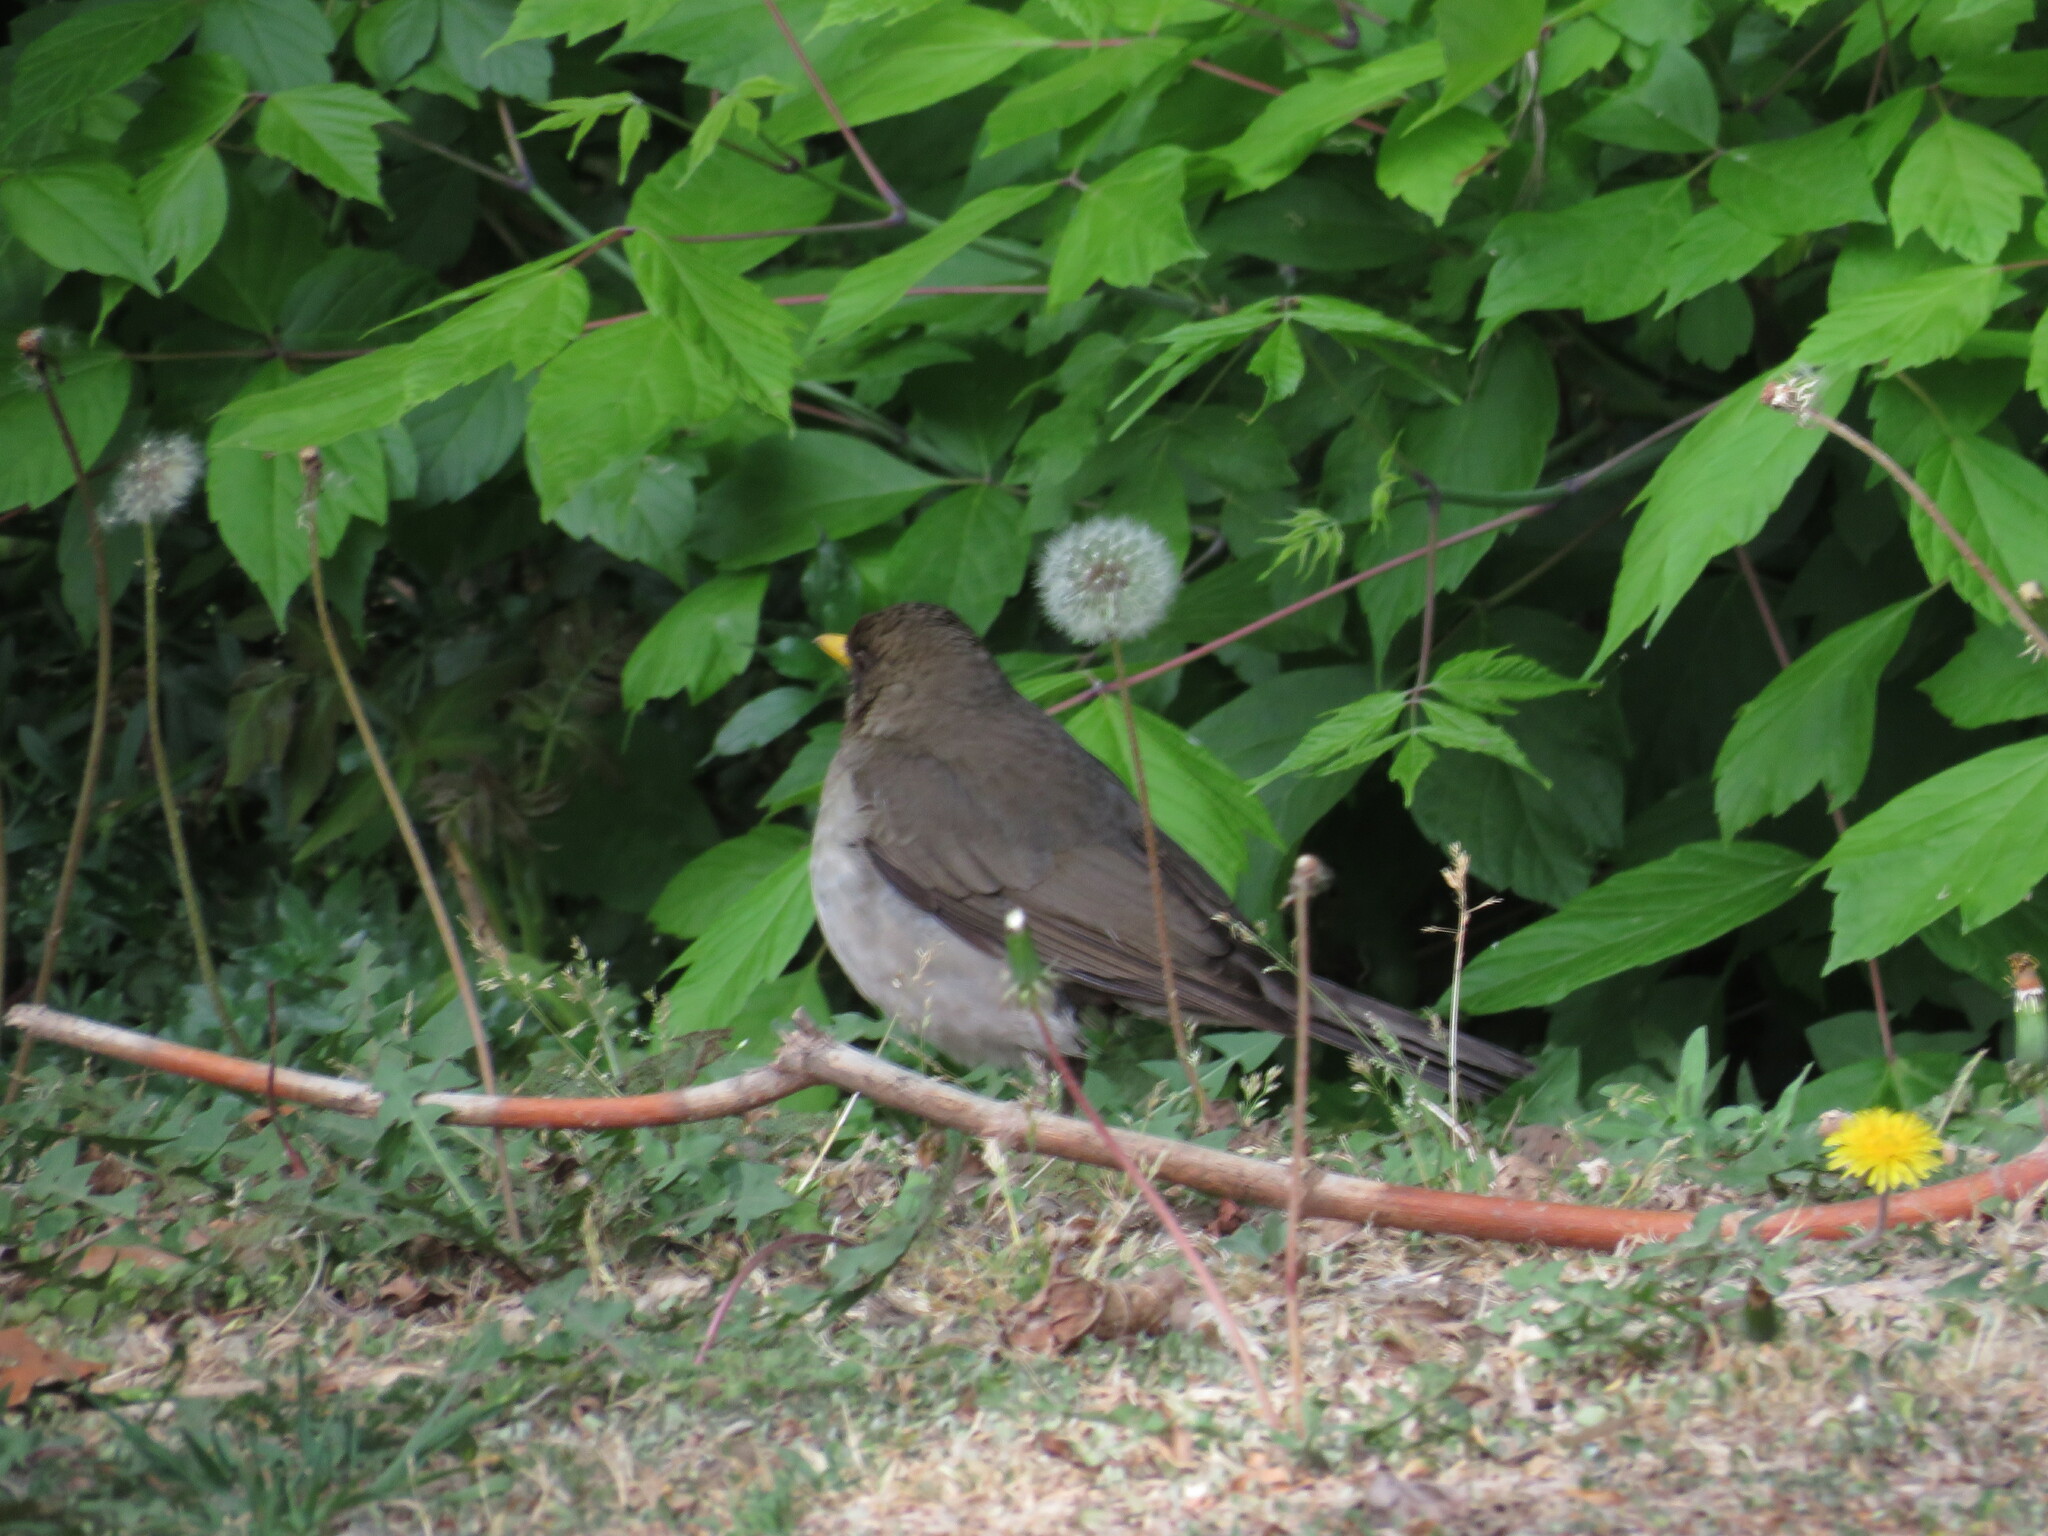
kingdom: Animalia
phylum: Chordata
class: Aves
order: Passeriformes
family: Turdidae
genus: Turdus
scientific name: Turdus amaurochalinus
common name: Creamy-bellied thrush
